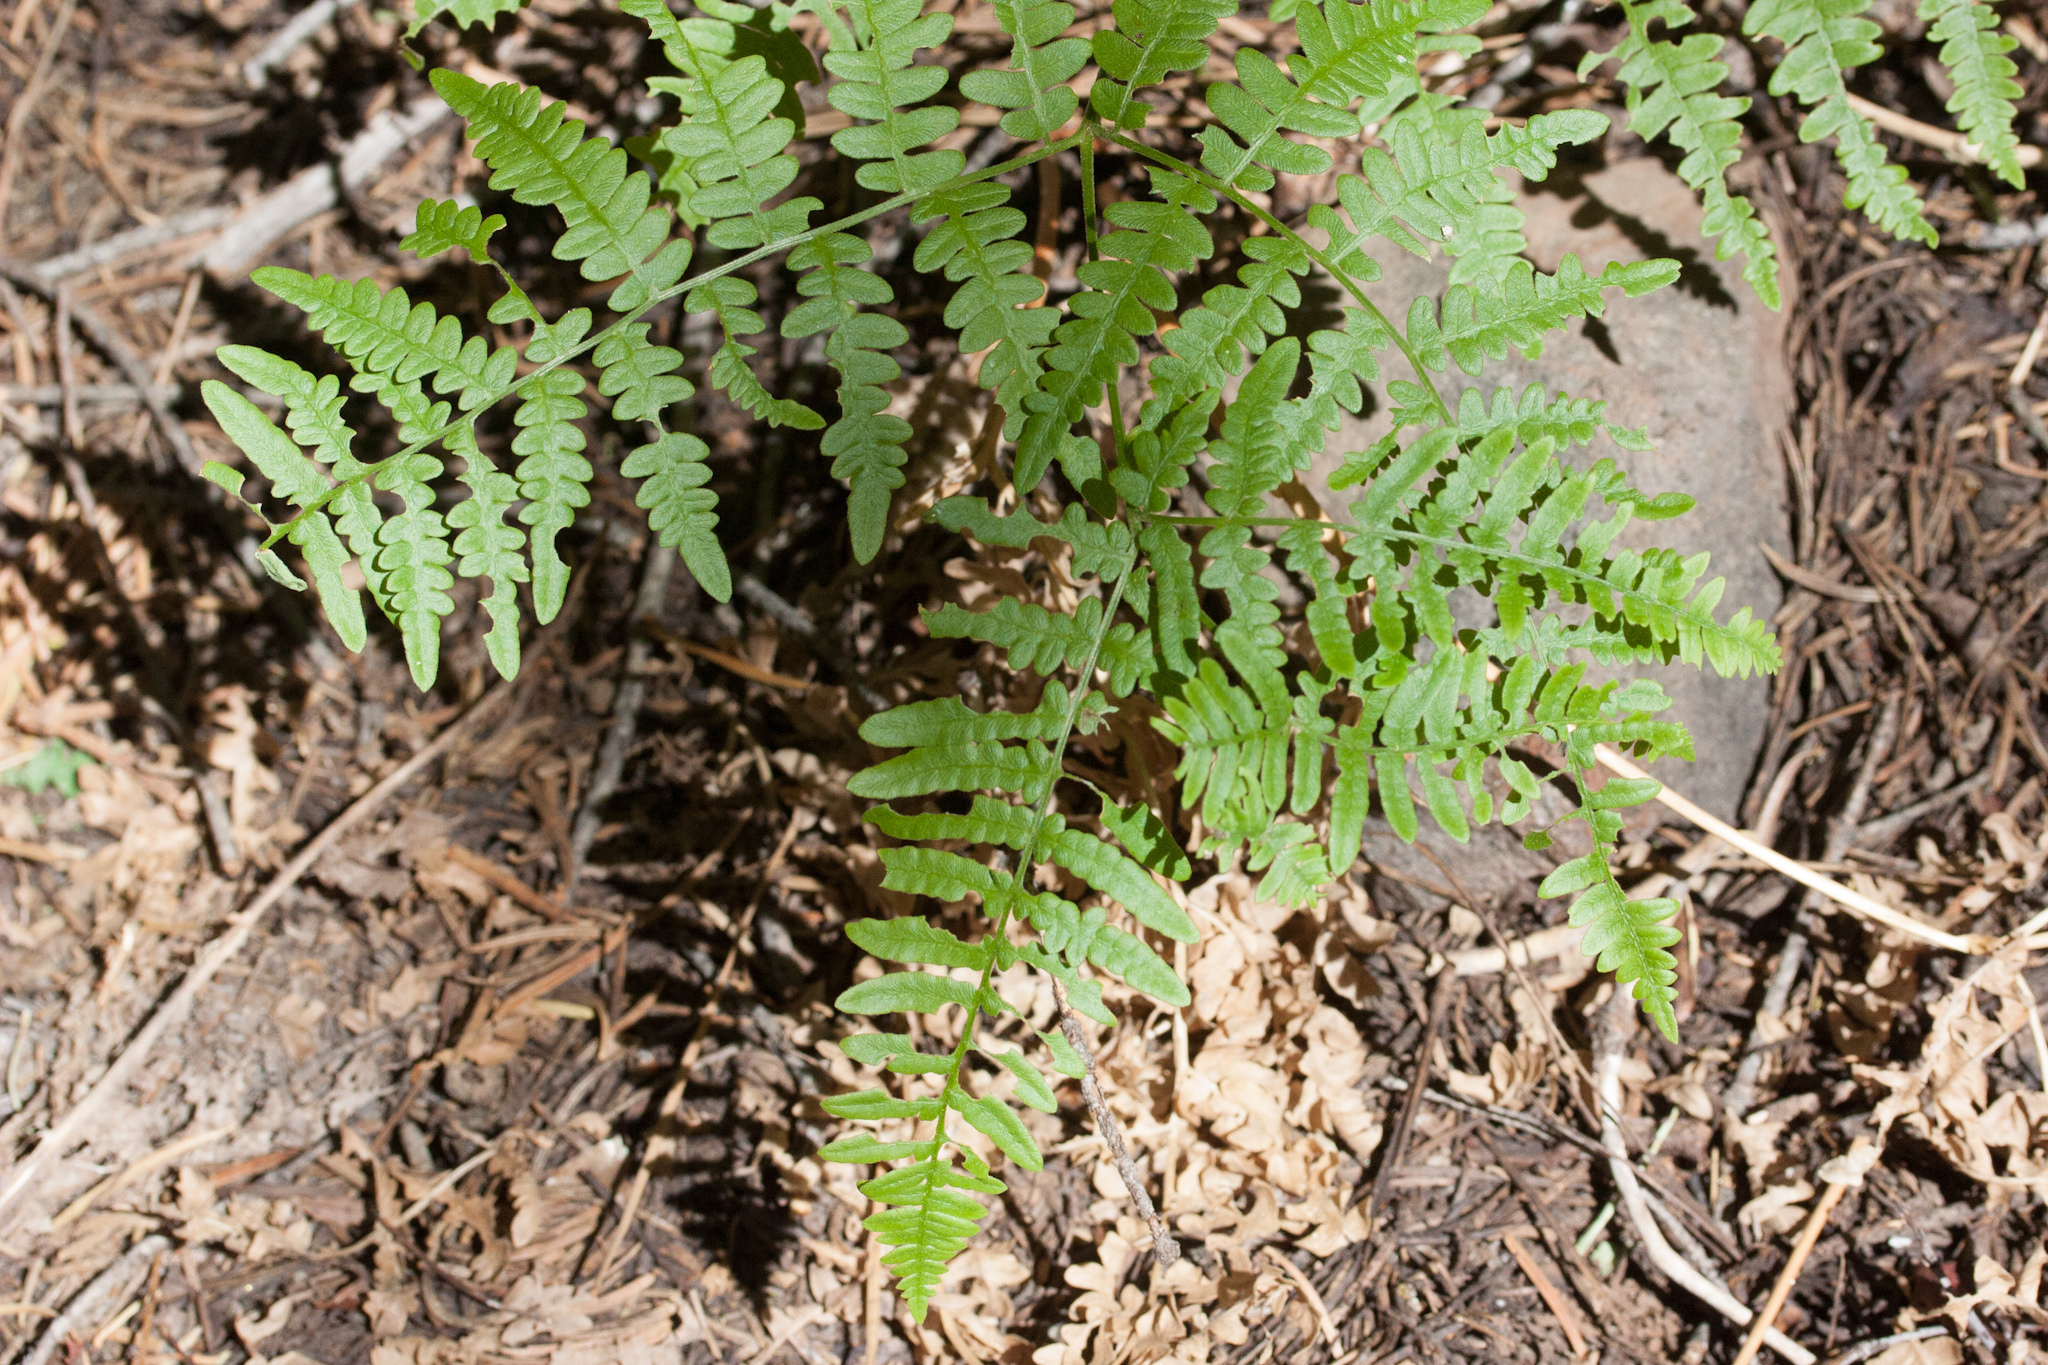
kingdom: Plantae
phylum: Tracheophyta
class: Polypodiopsida
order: Polypodiales
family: Dennstaedtiaceae
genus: Pteridium
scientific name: Pteridium aquilinum
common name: Bracken
